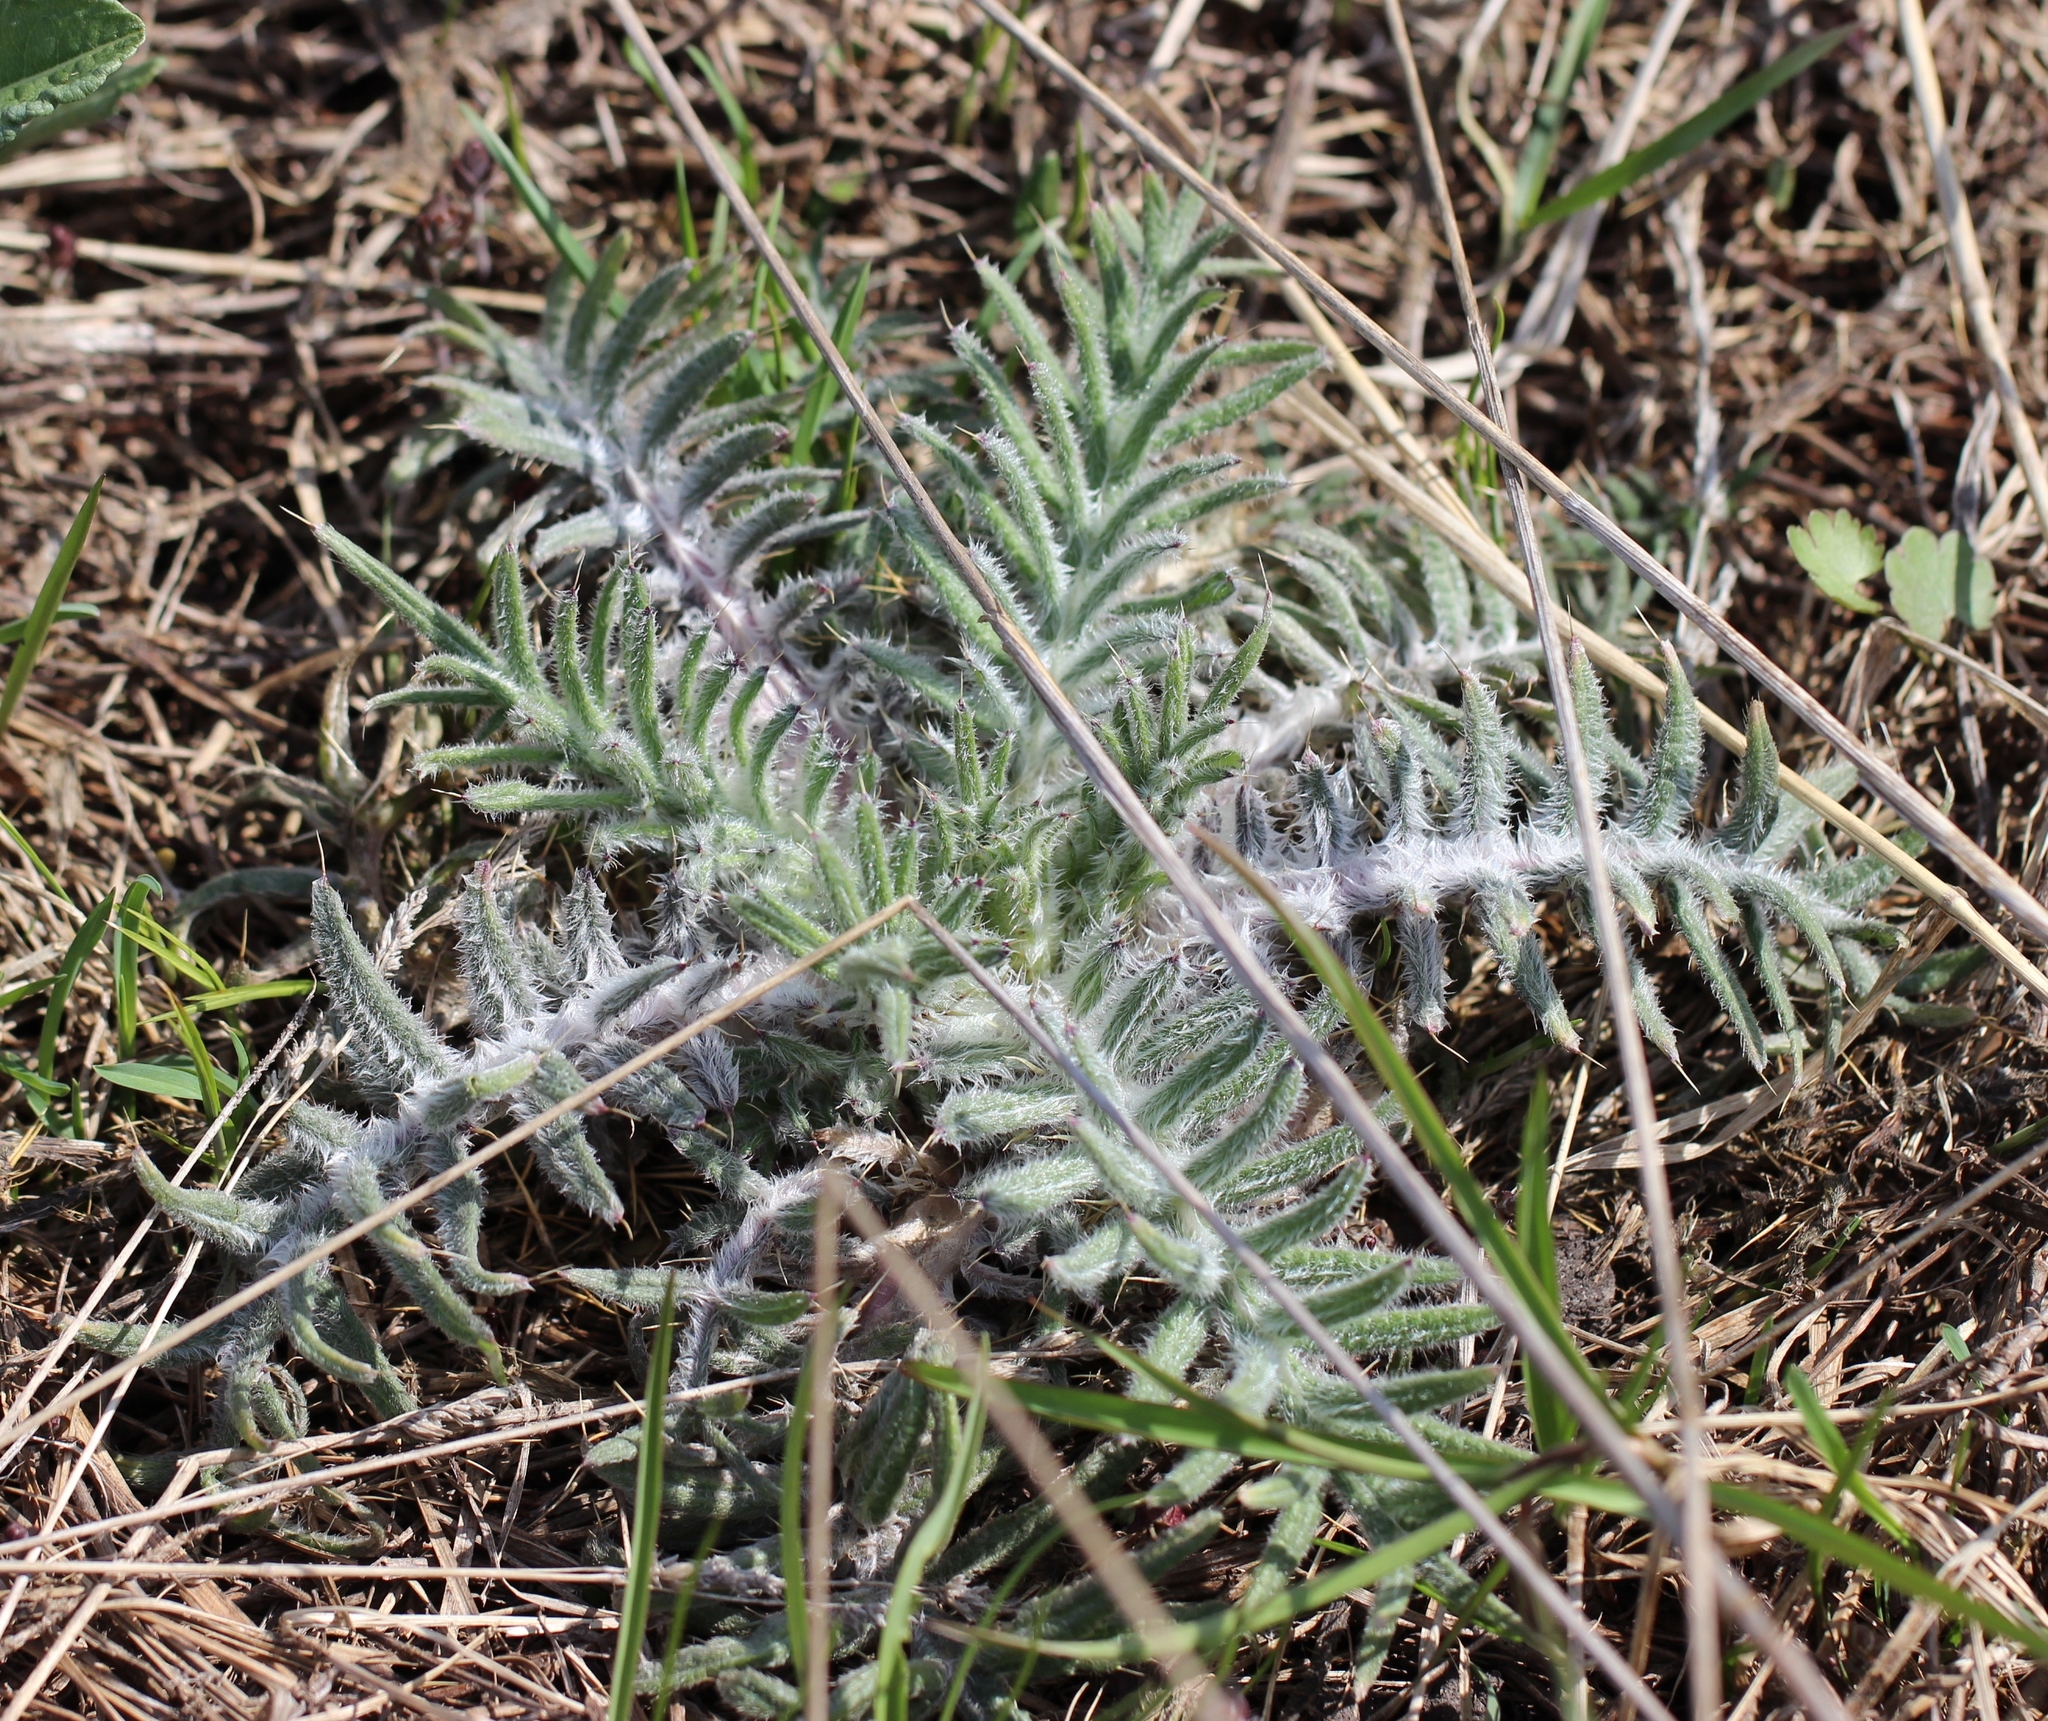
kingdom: Plantae
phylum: Tracheophyta
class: Magnoliopsida
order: Asterales
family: Asteraceae
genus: Lophiolepis
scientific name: Lophiolepis decussata
